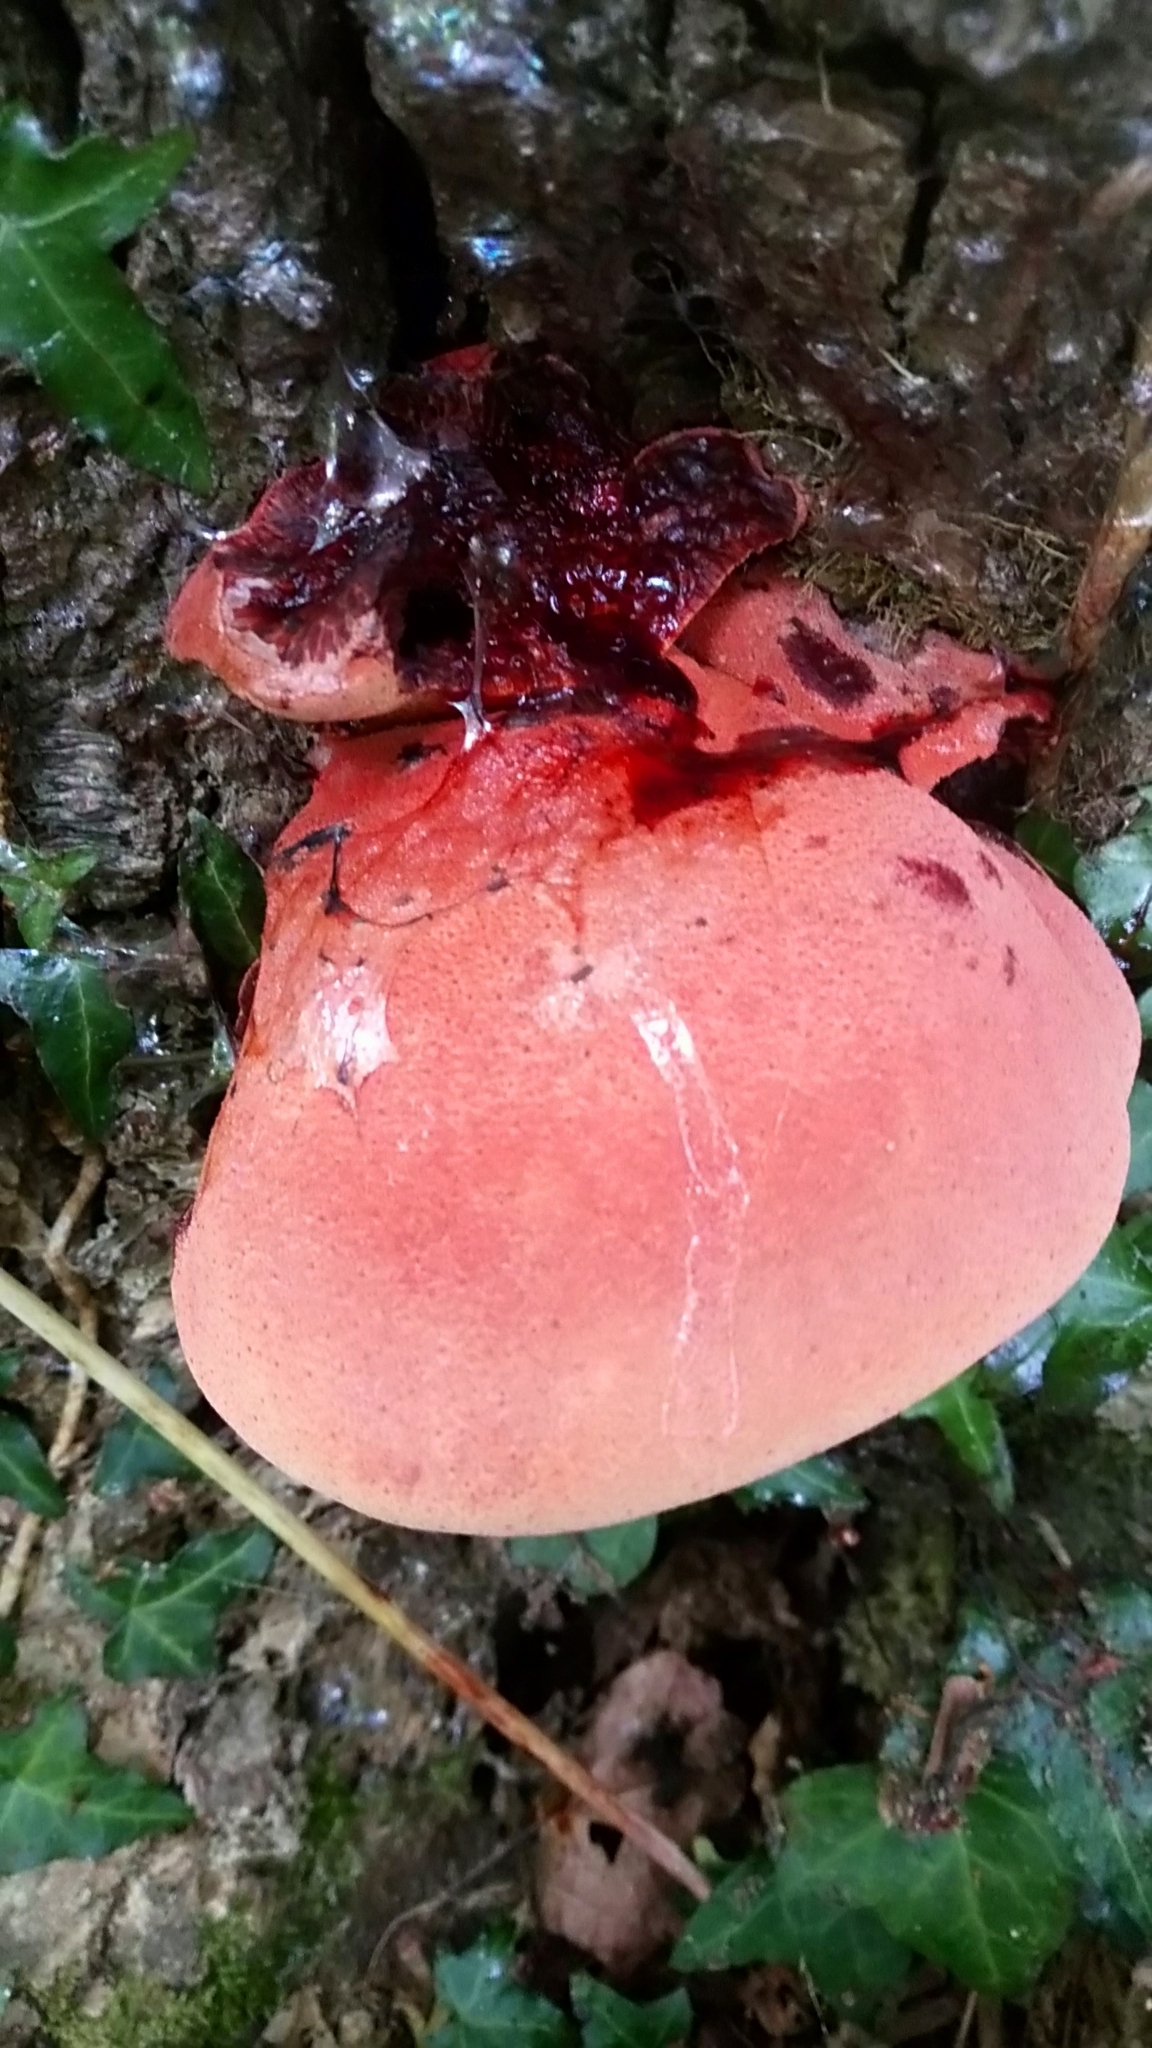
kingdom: Fungi
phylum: Basidiomycota
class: Agaricomycetes
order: Agaricales
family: Fistulinaceae
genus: Fistulina
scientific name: Fistulina hepatica
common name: Beef-steak fungus
